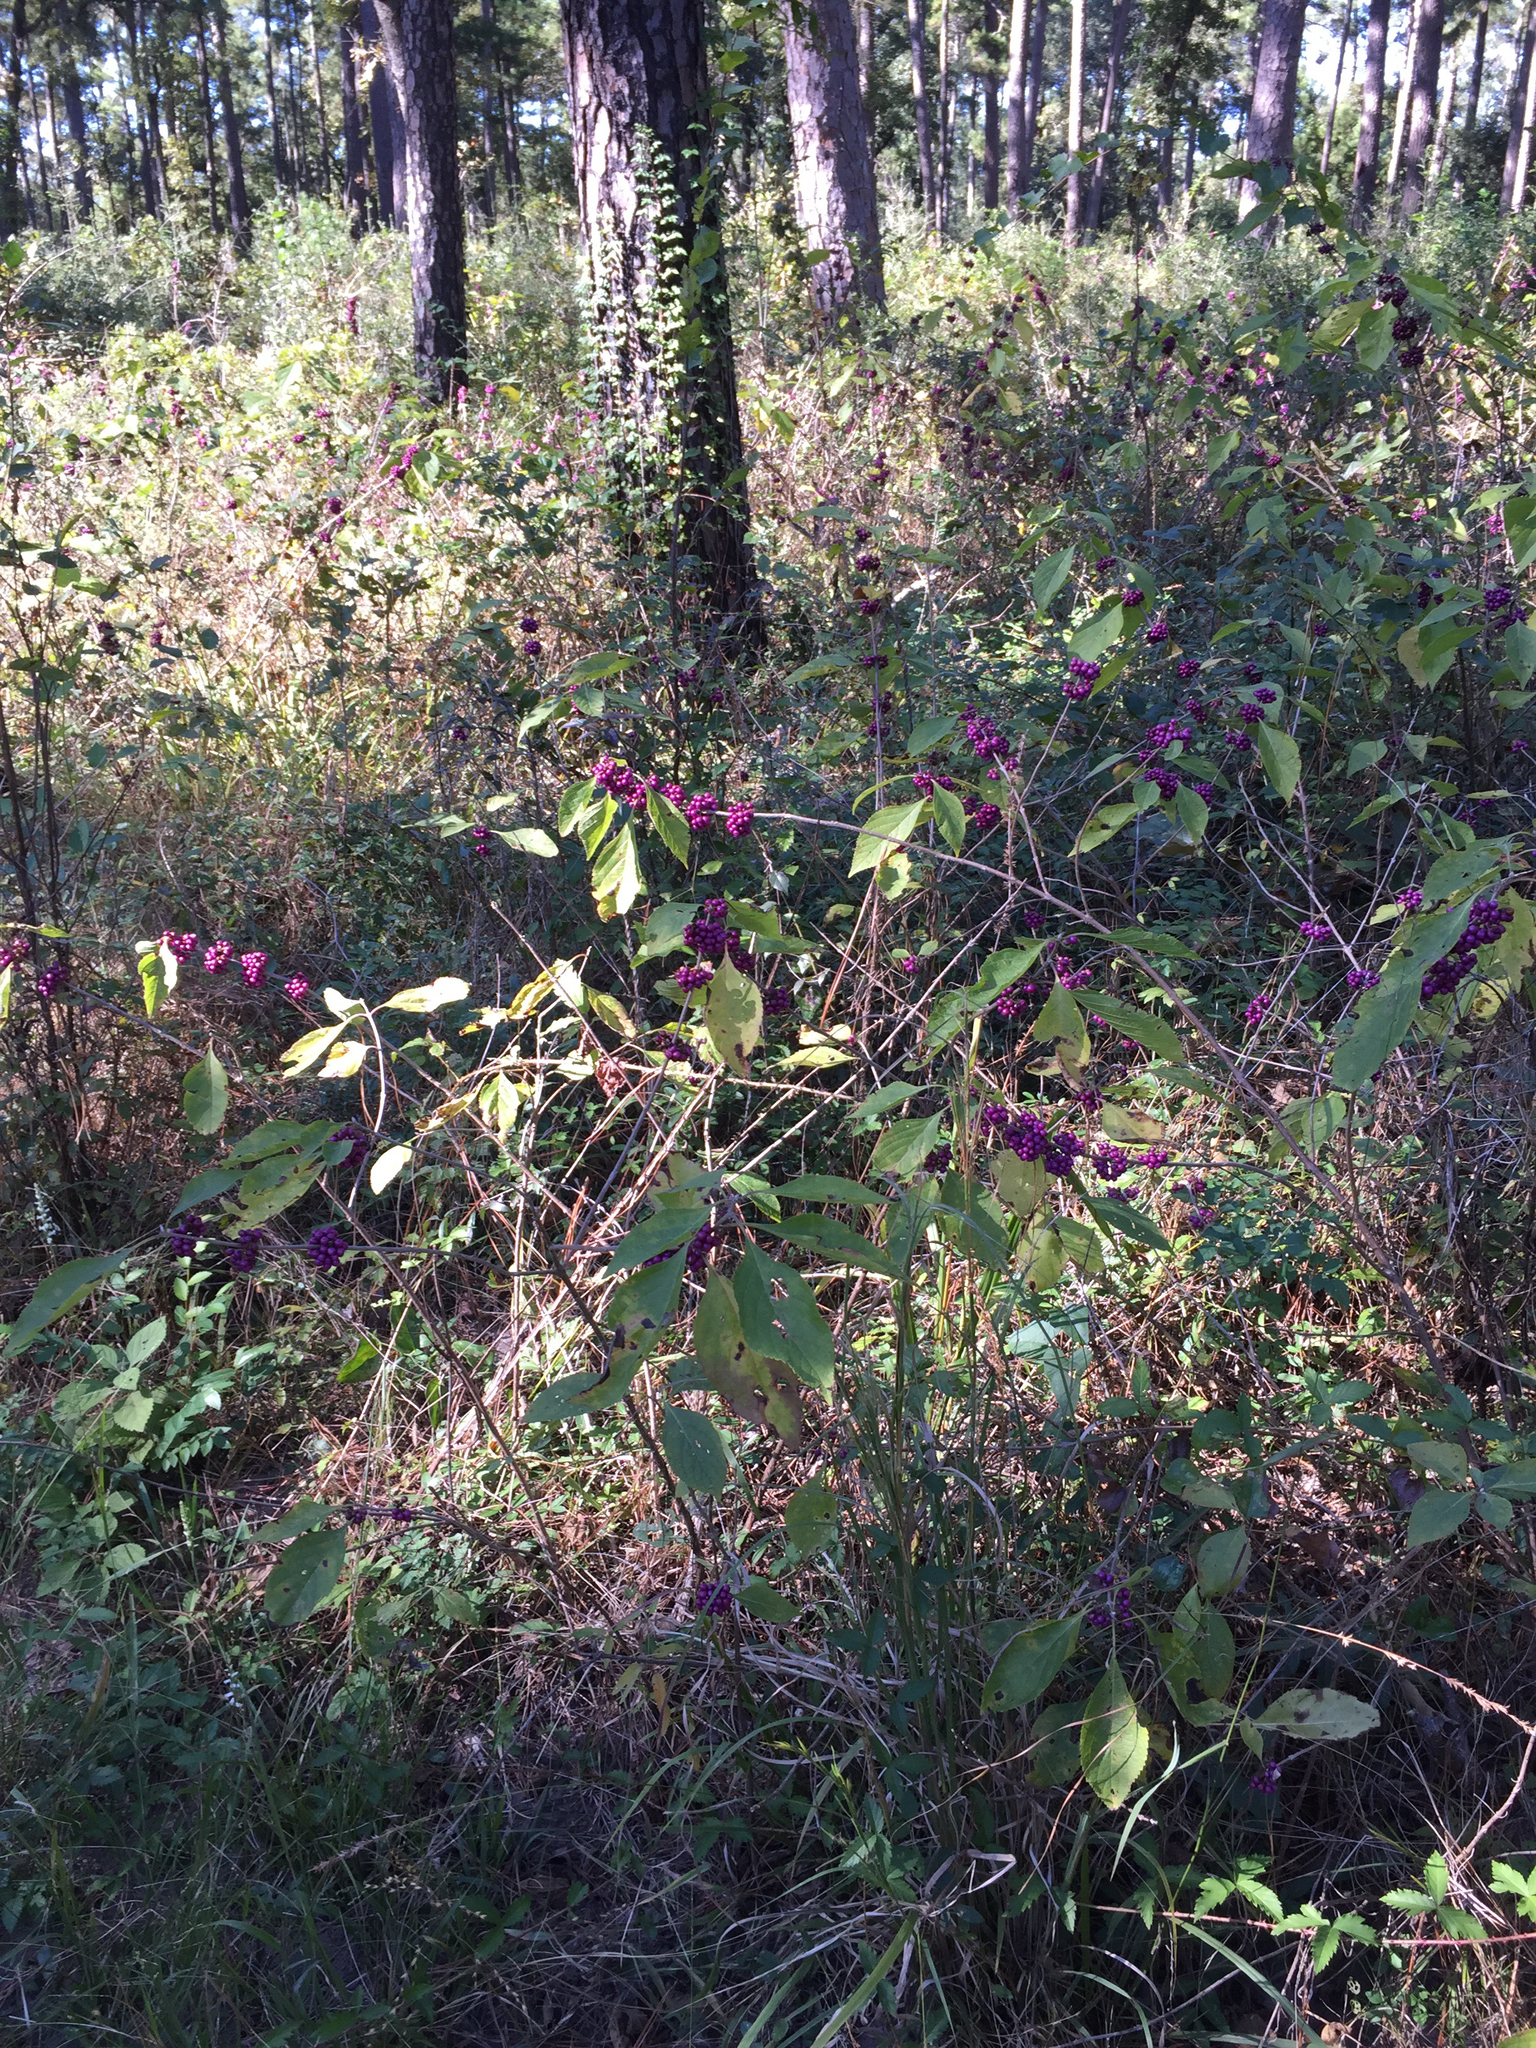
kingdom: Plantae
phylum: Tracheophyta
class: Magnoliopsida
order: Lamiales
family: Lamiaceae
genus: Callicarpa
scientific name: Callicarpa americana
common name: American beautyberry
